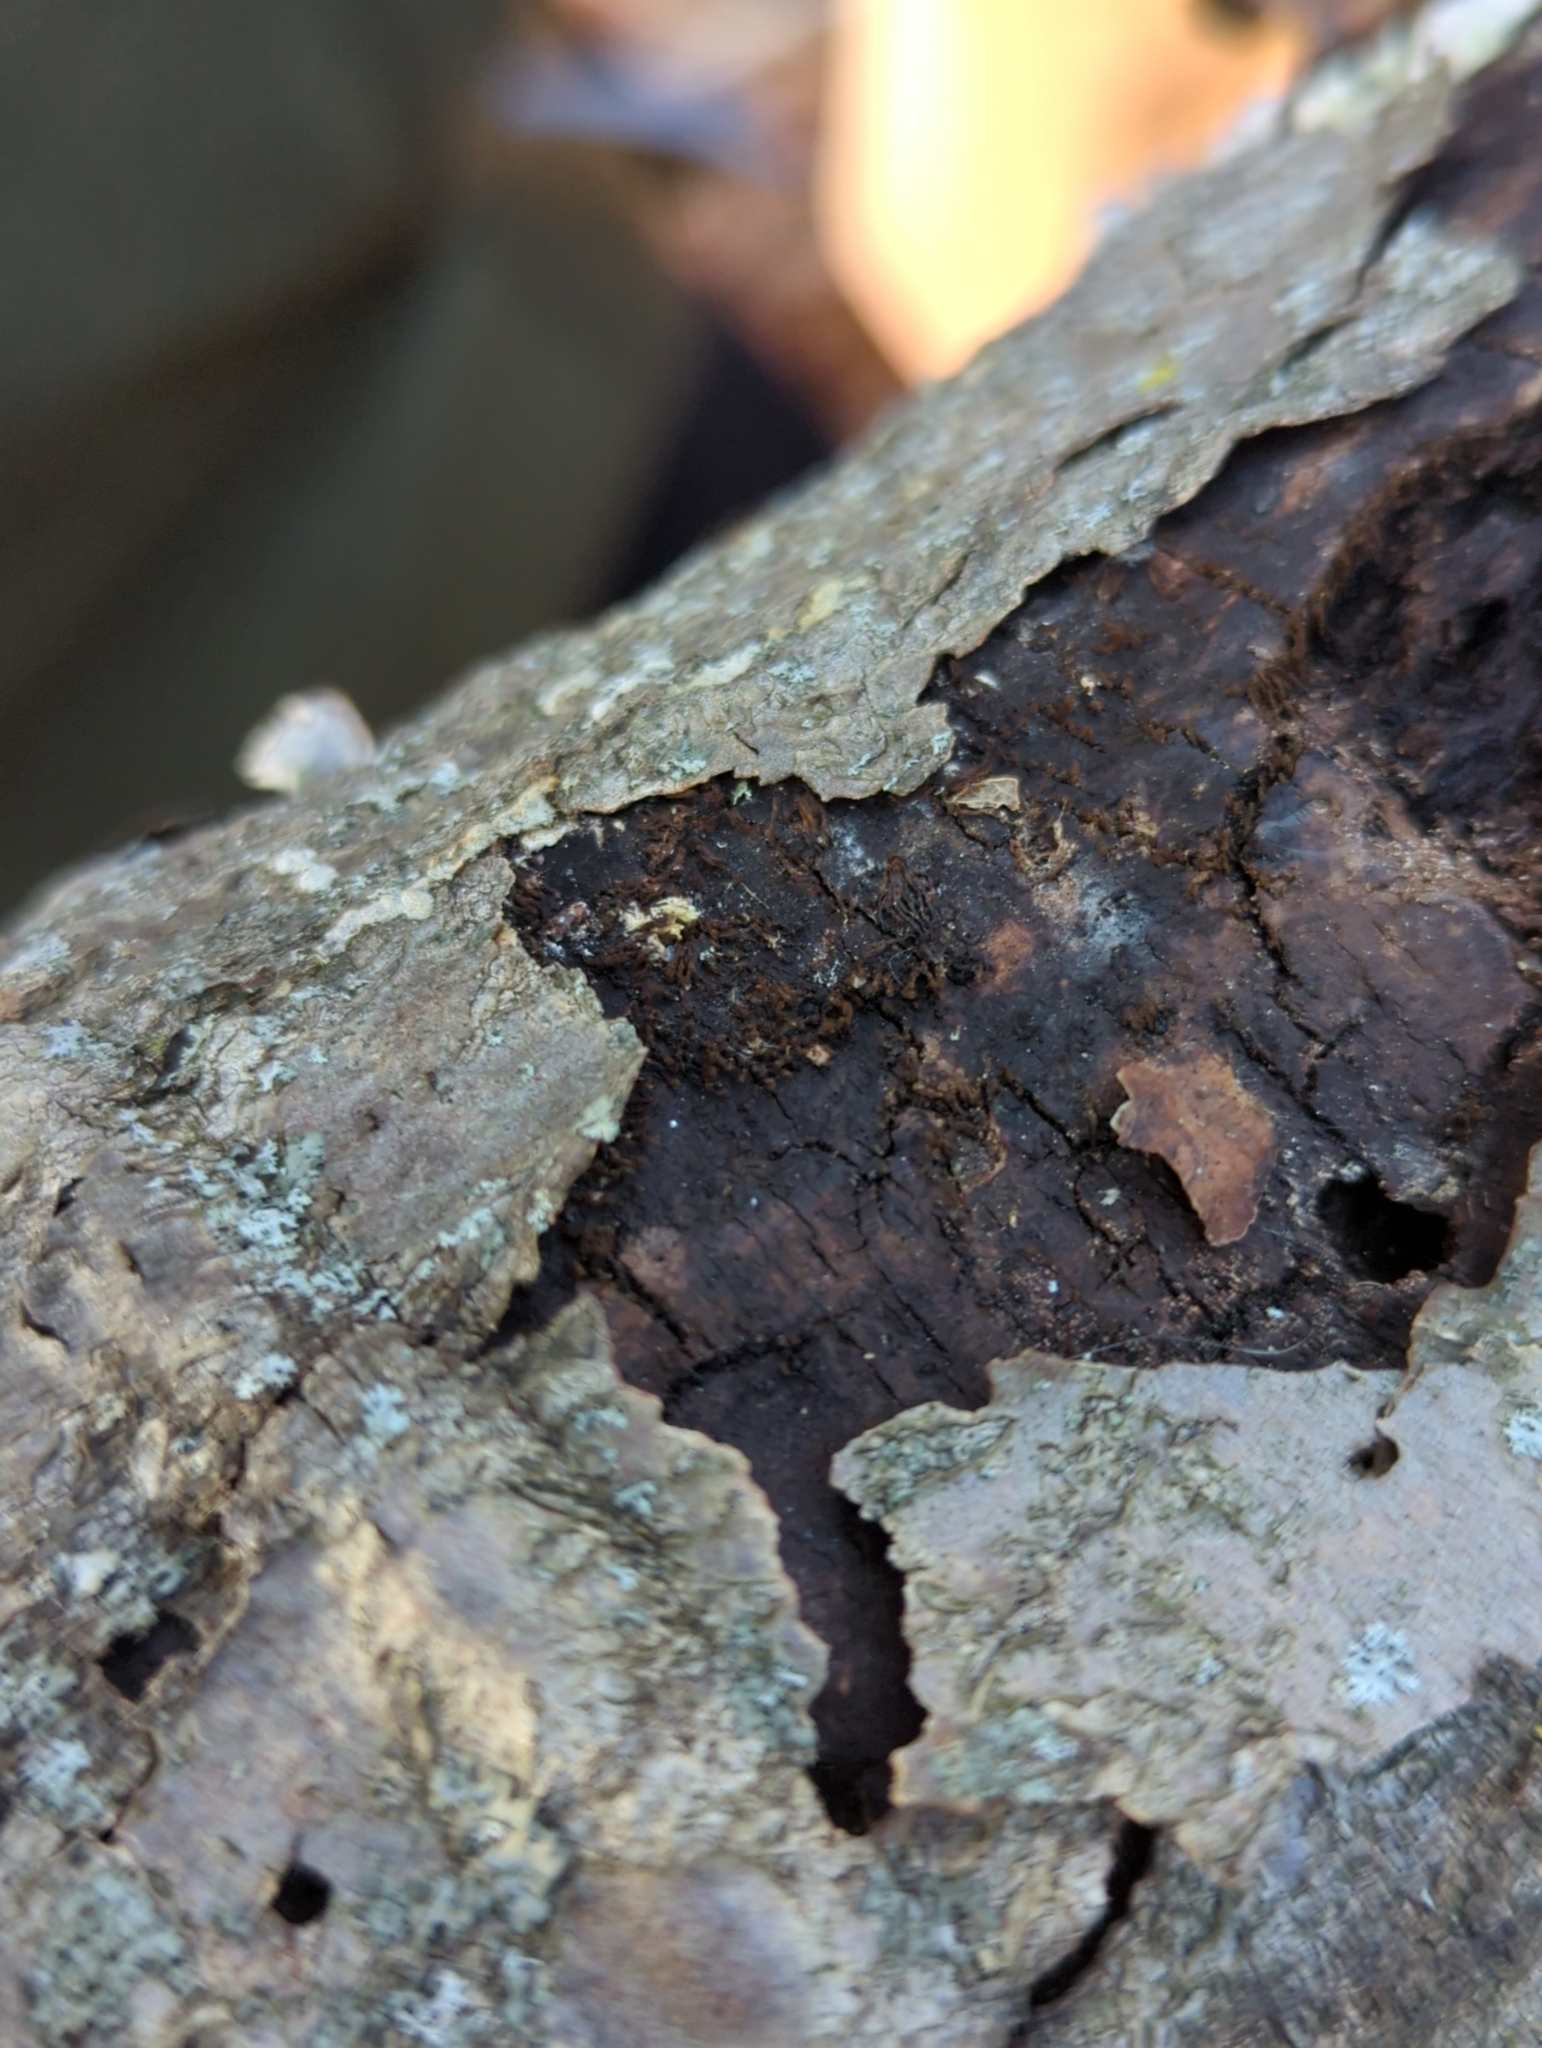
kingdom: Fungi
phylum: Ascomycota
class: Sordariomycetes
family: Barbatosphaeriaceae
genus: Barbatosphaeria
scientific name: Barbatosphaeria barbirostris
